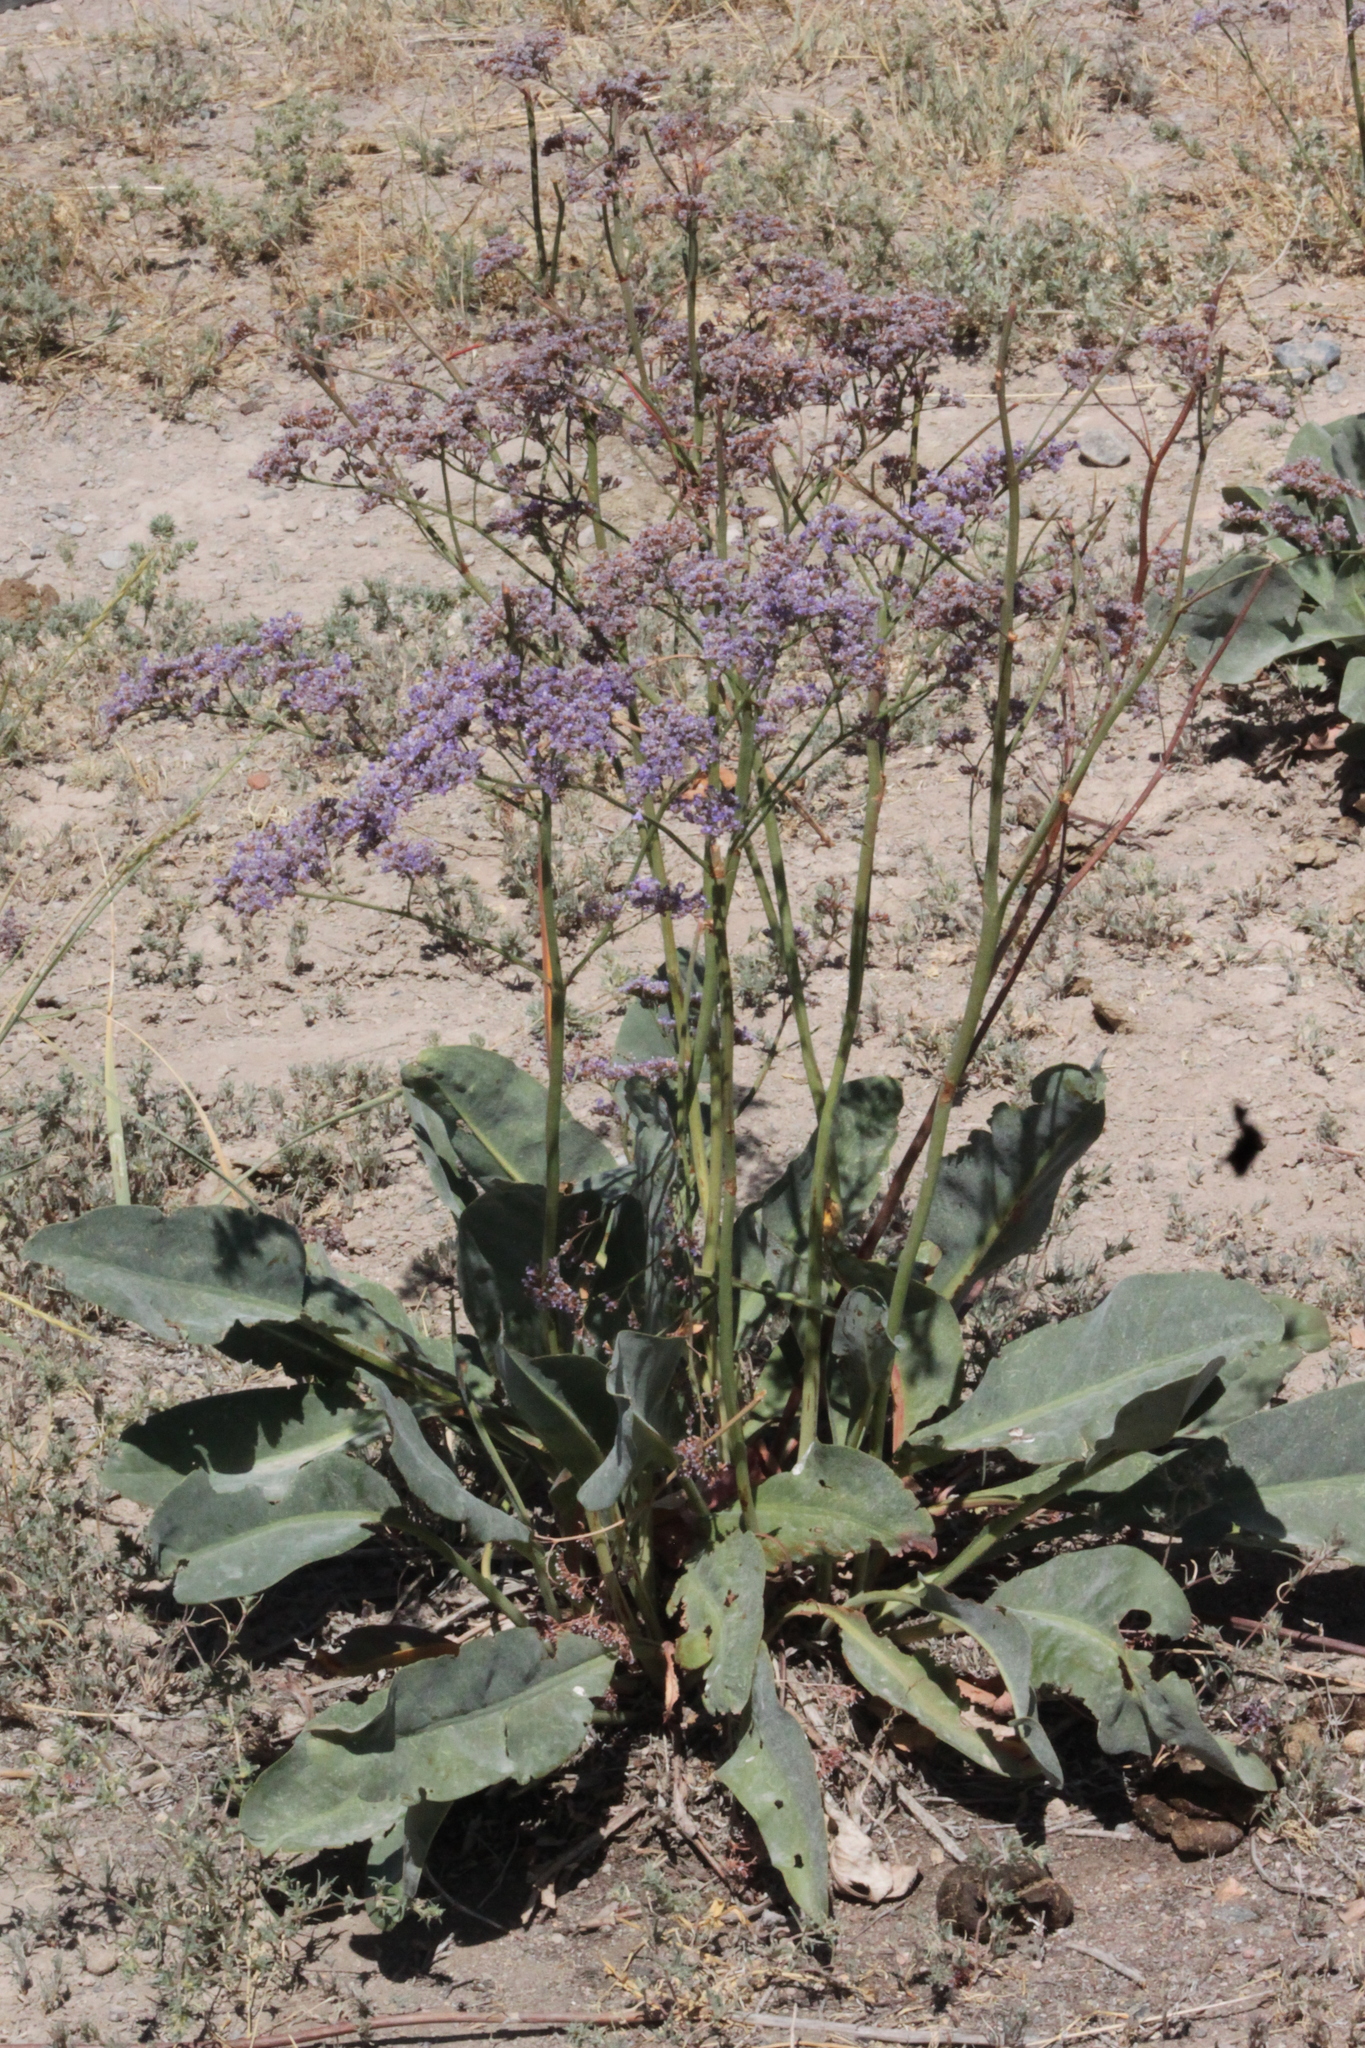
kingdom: Plantae
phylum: Tracheophyta
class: Magnoliopsida
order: Caryophyllales
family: Plumbaginaceae
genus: Limonium
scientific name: Limonium gmelini
